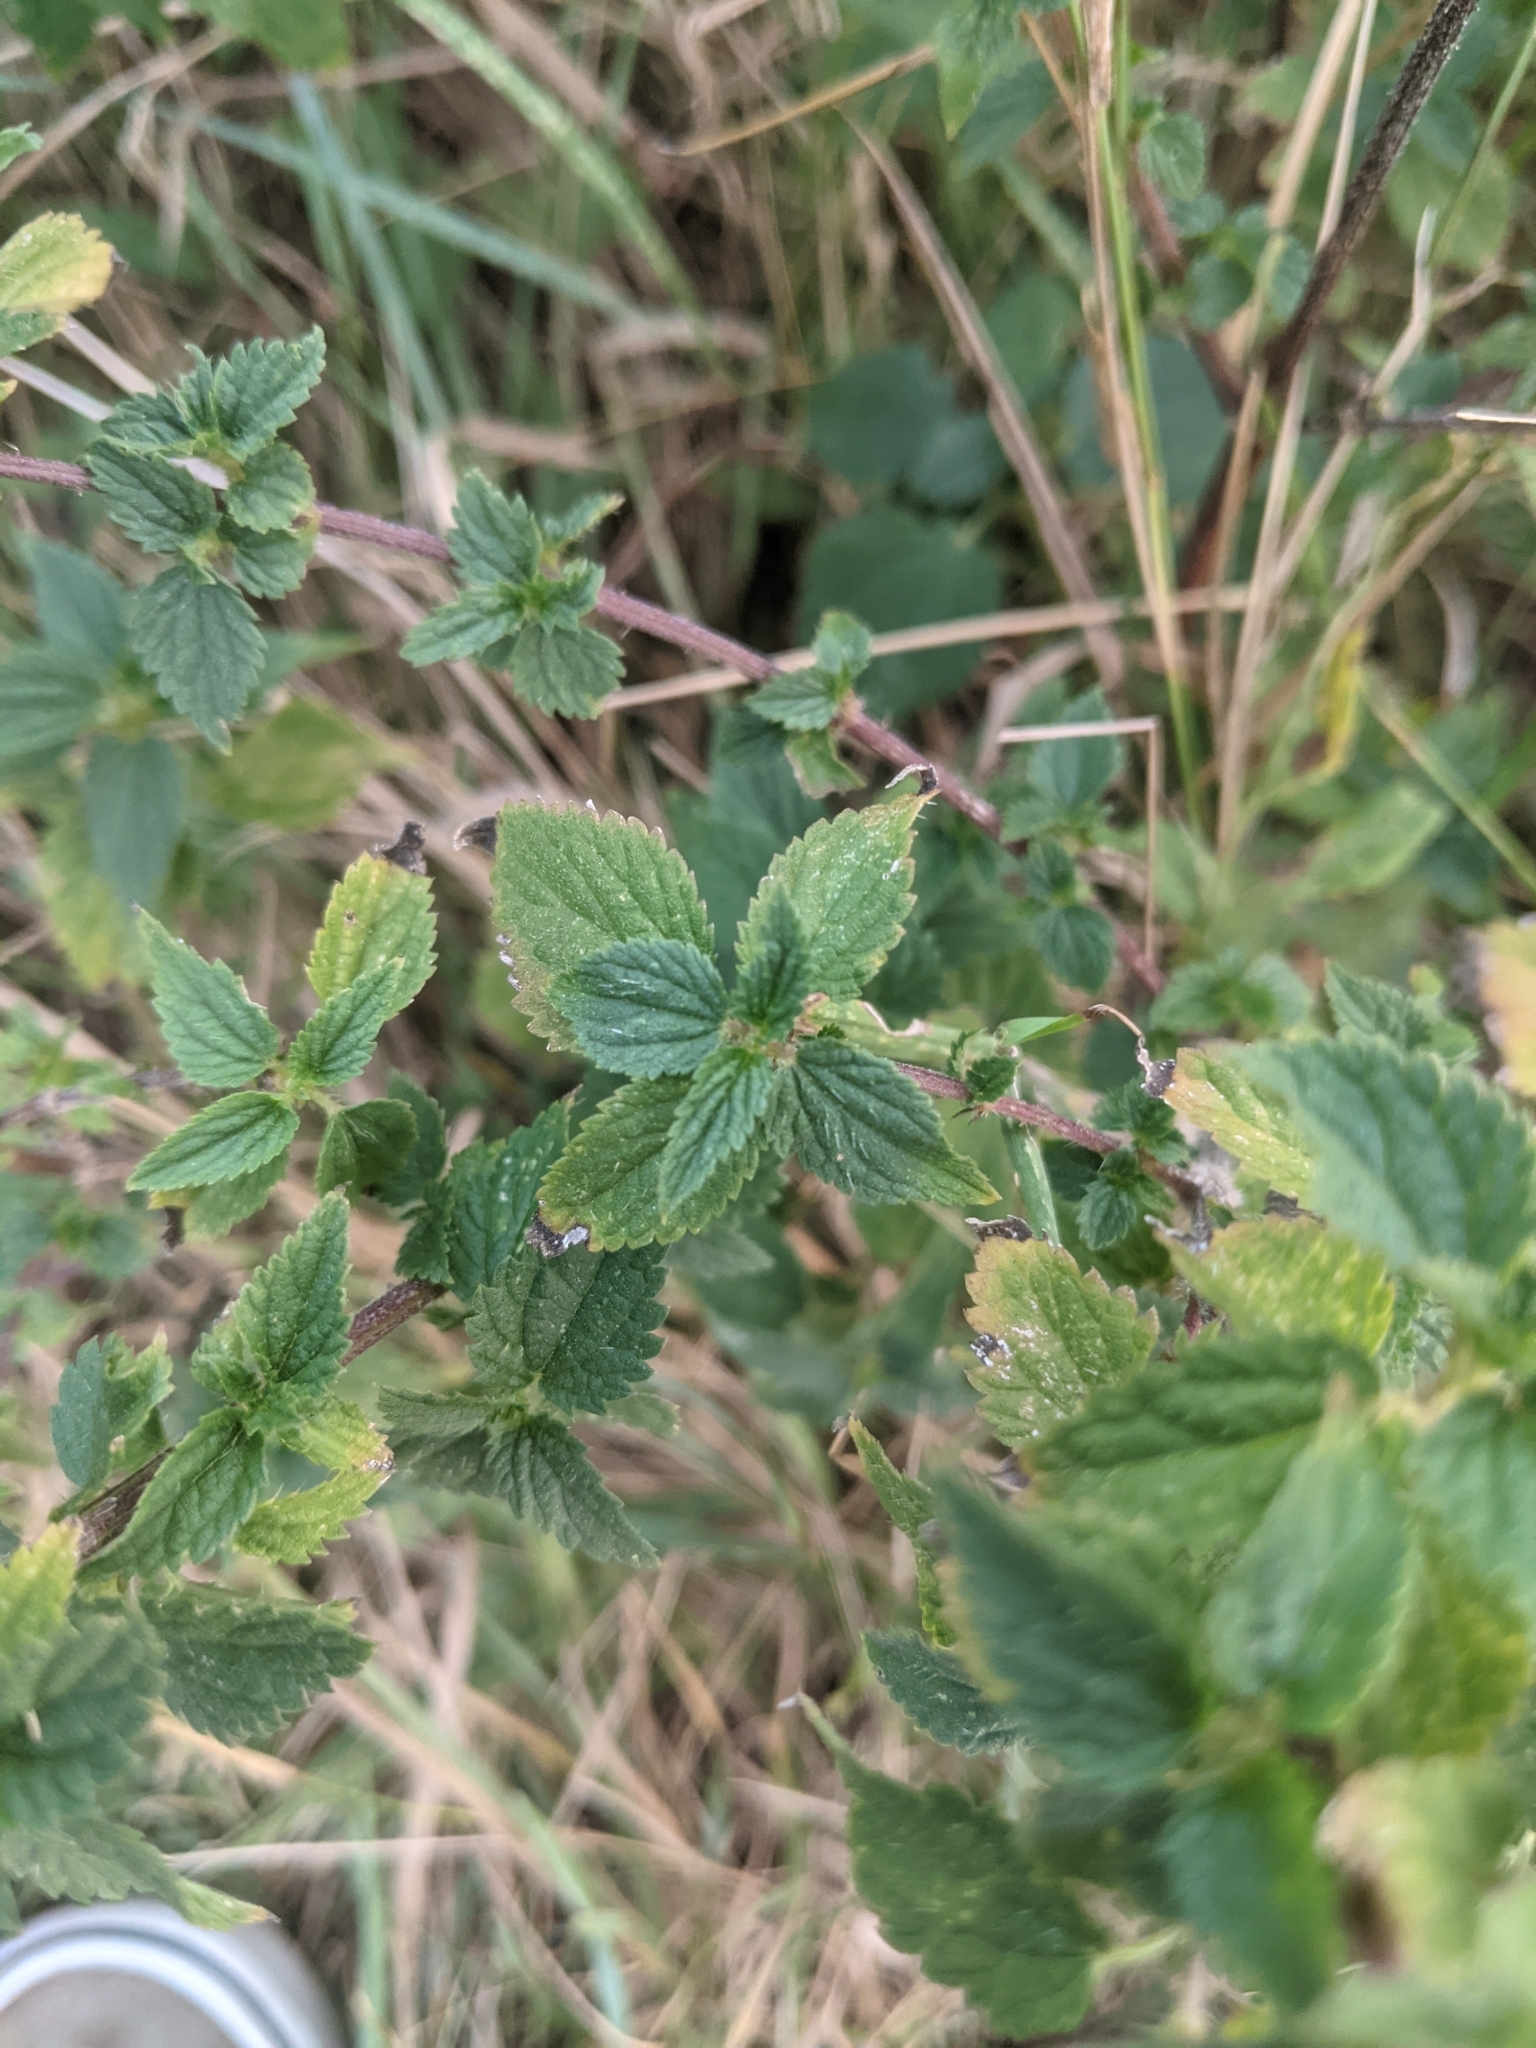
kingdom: Plantae
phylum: Tracheophyta
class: Magnoliopsida
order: Rosales
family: Urticaceae
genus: Urtica
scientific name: Urtica dioica
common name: Common nettle
